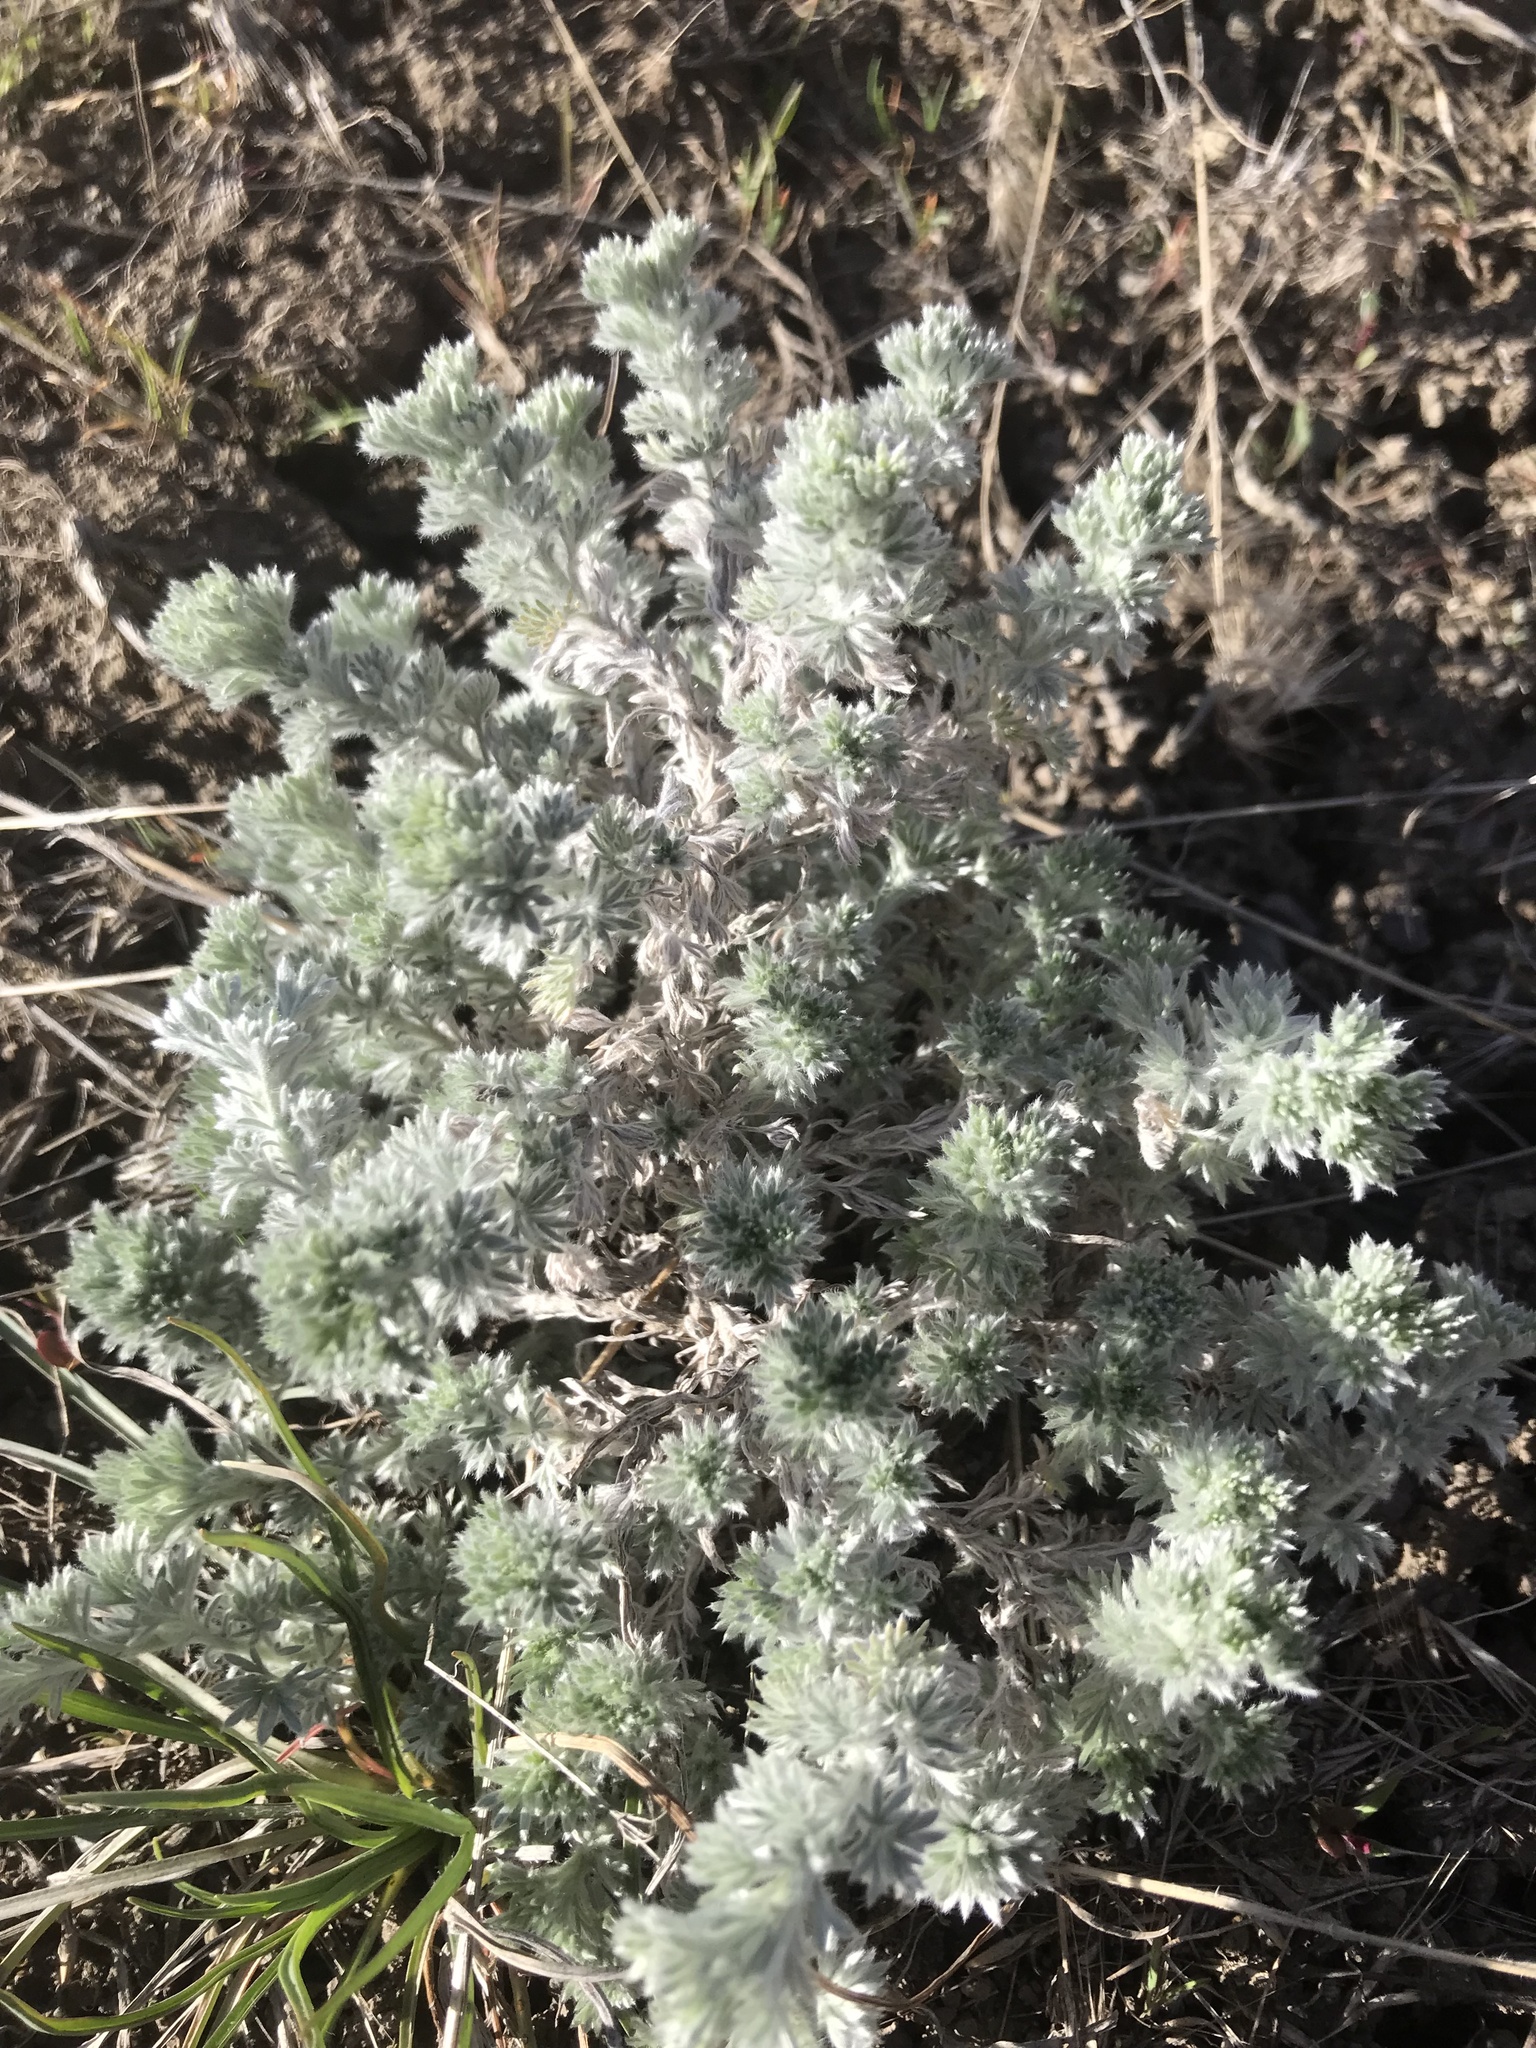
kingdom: Plantae
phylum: Tracheophyta
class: Magnoliopsida
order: Asterales
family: Asteraceae
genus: Artemisia
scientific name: Artemisia frigida
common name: Prairie sagewort
